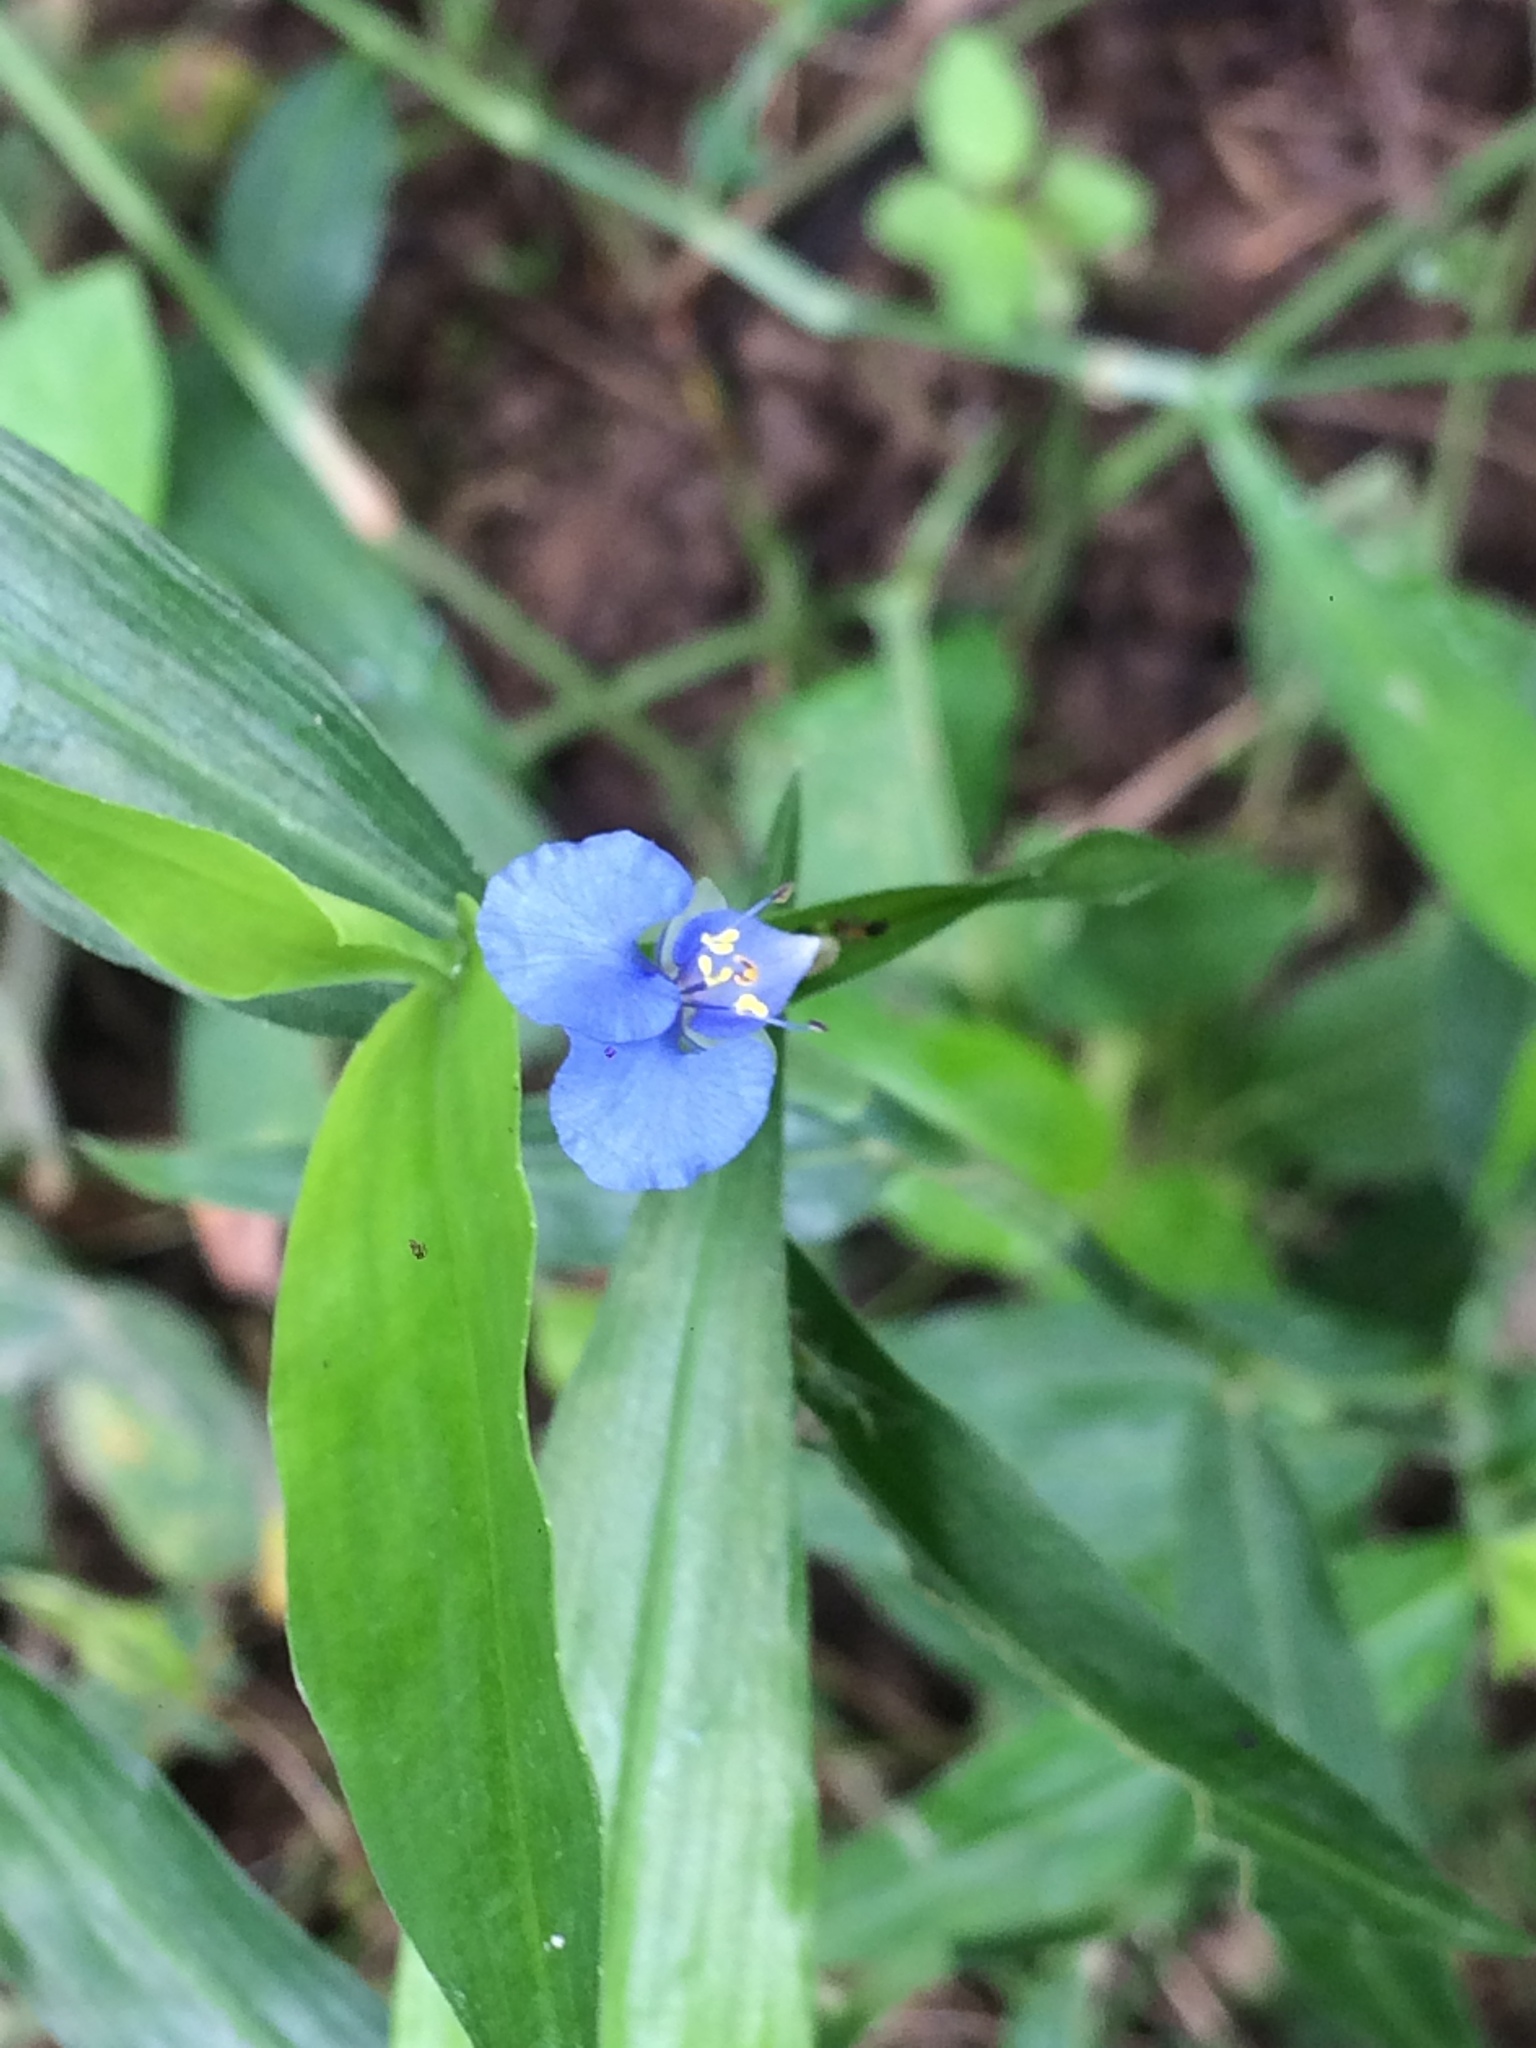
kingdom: Plantae
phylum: Tracheophyta
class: Liliopsida
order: Commelinales
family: Commelinaceae
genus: Commelina
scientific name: Commelina diffusa
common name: Climbing dayflower
